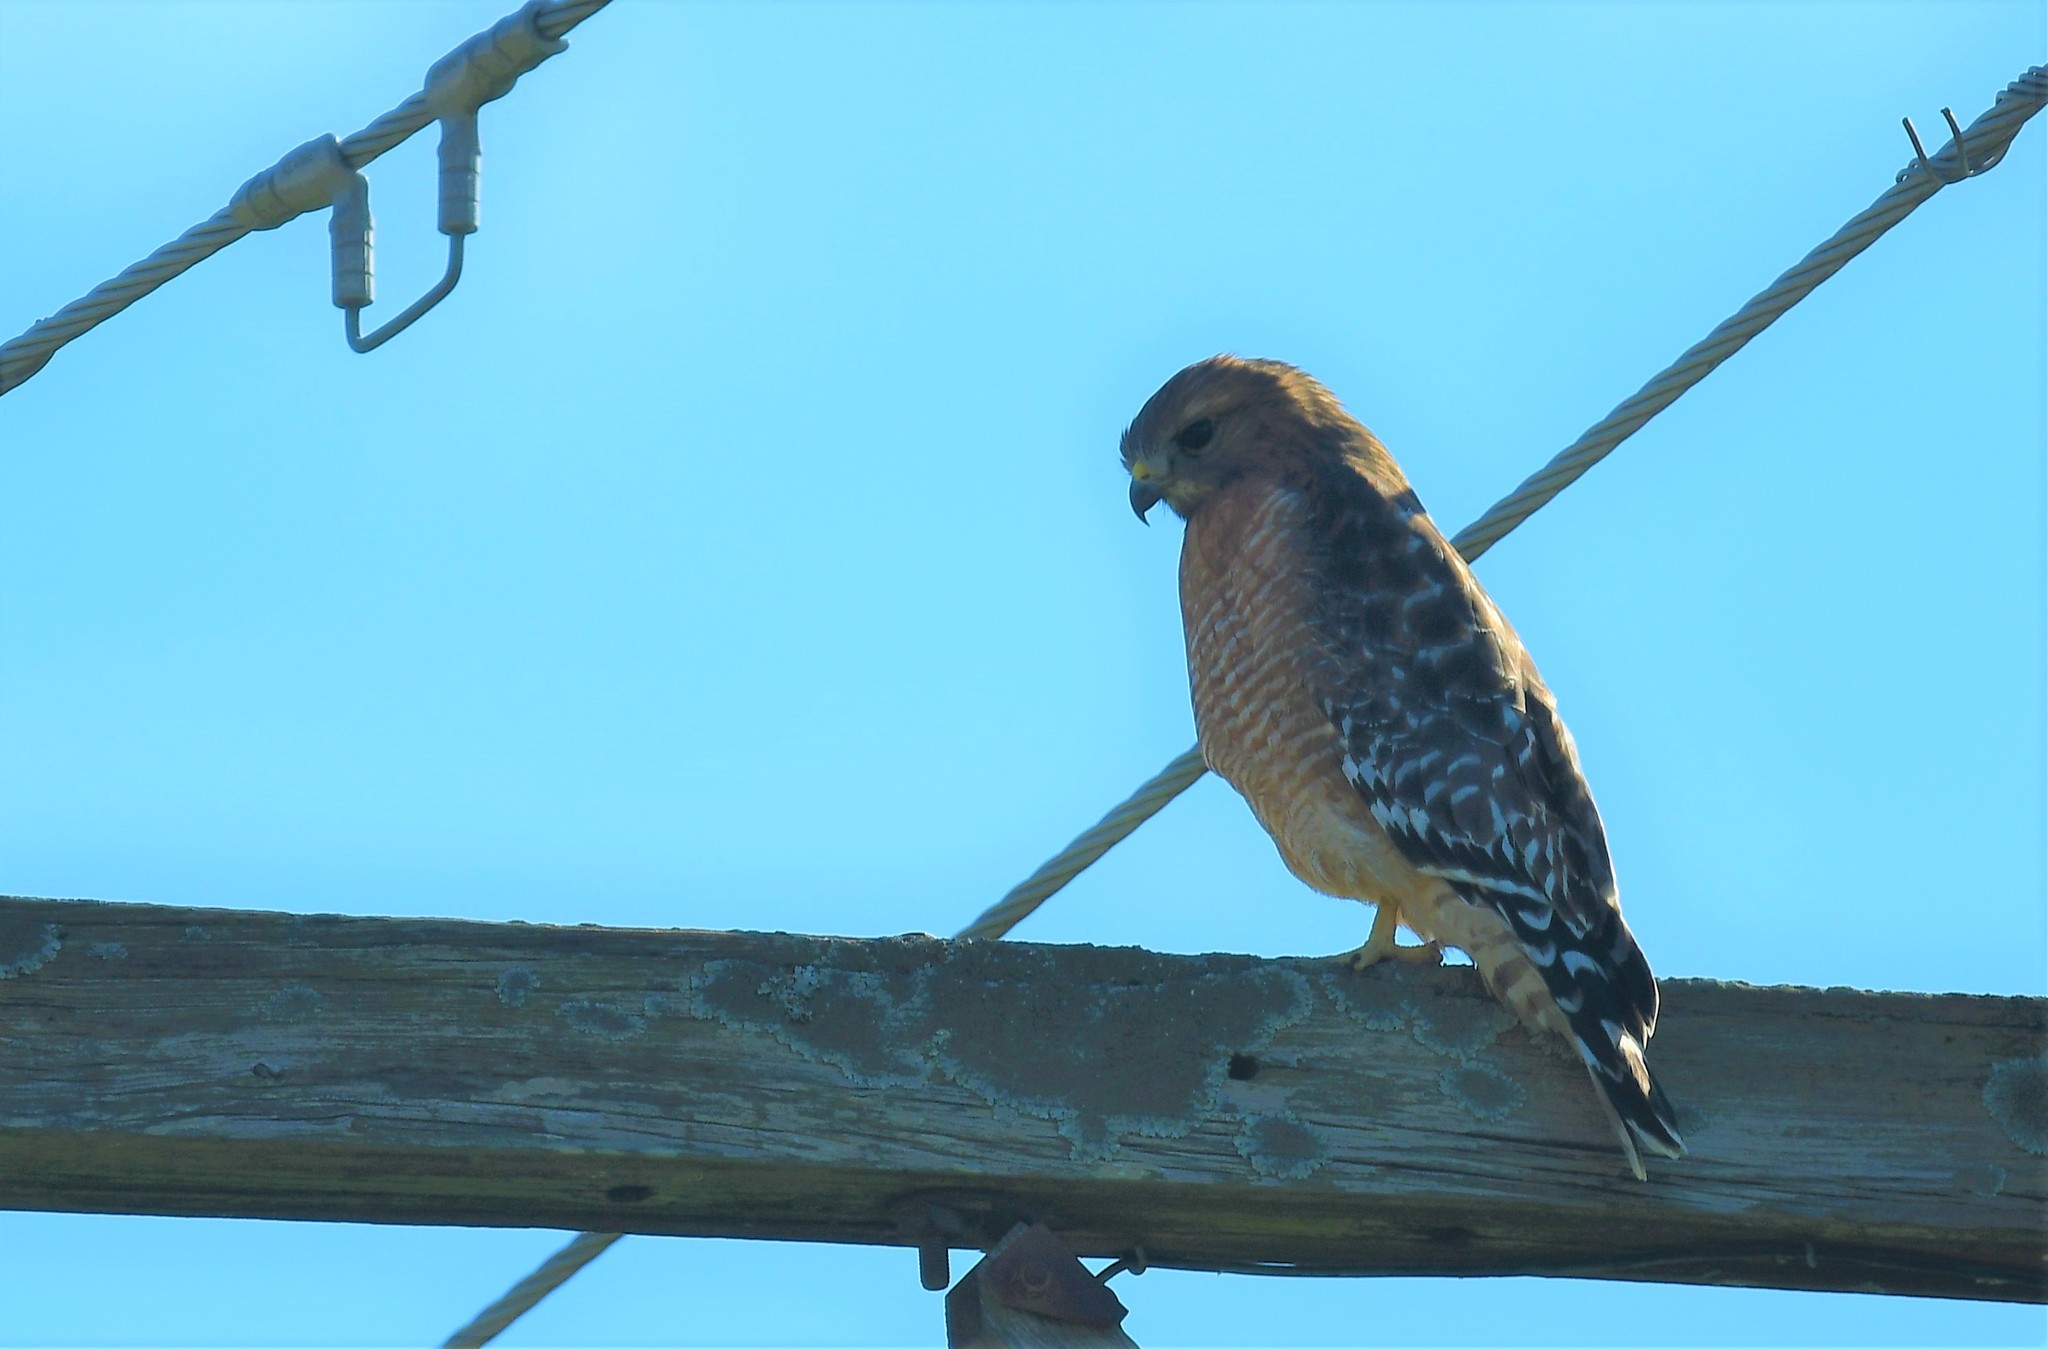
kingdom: Animalia
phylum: Chordata
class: Aves
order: Accipitriformes
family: Accipitridae
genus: Buteo
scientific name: Buteo lineatus
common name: Red-shouldered hawk
